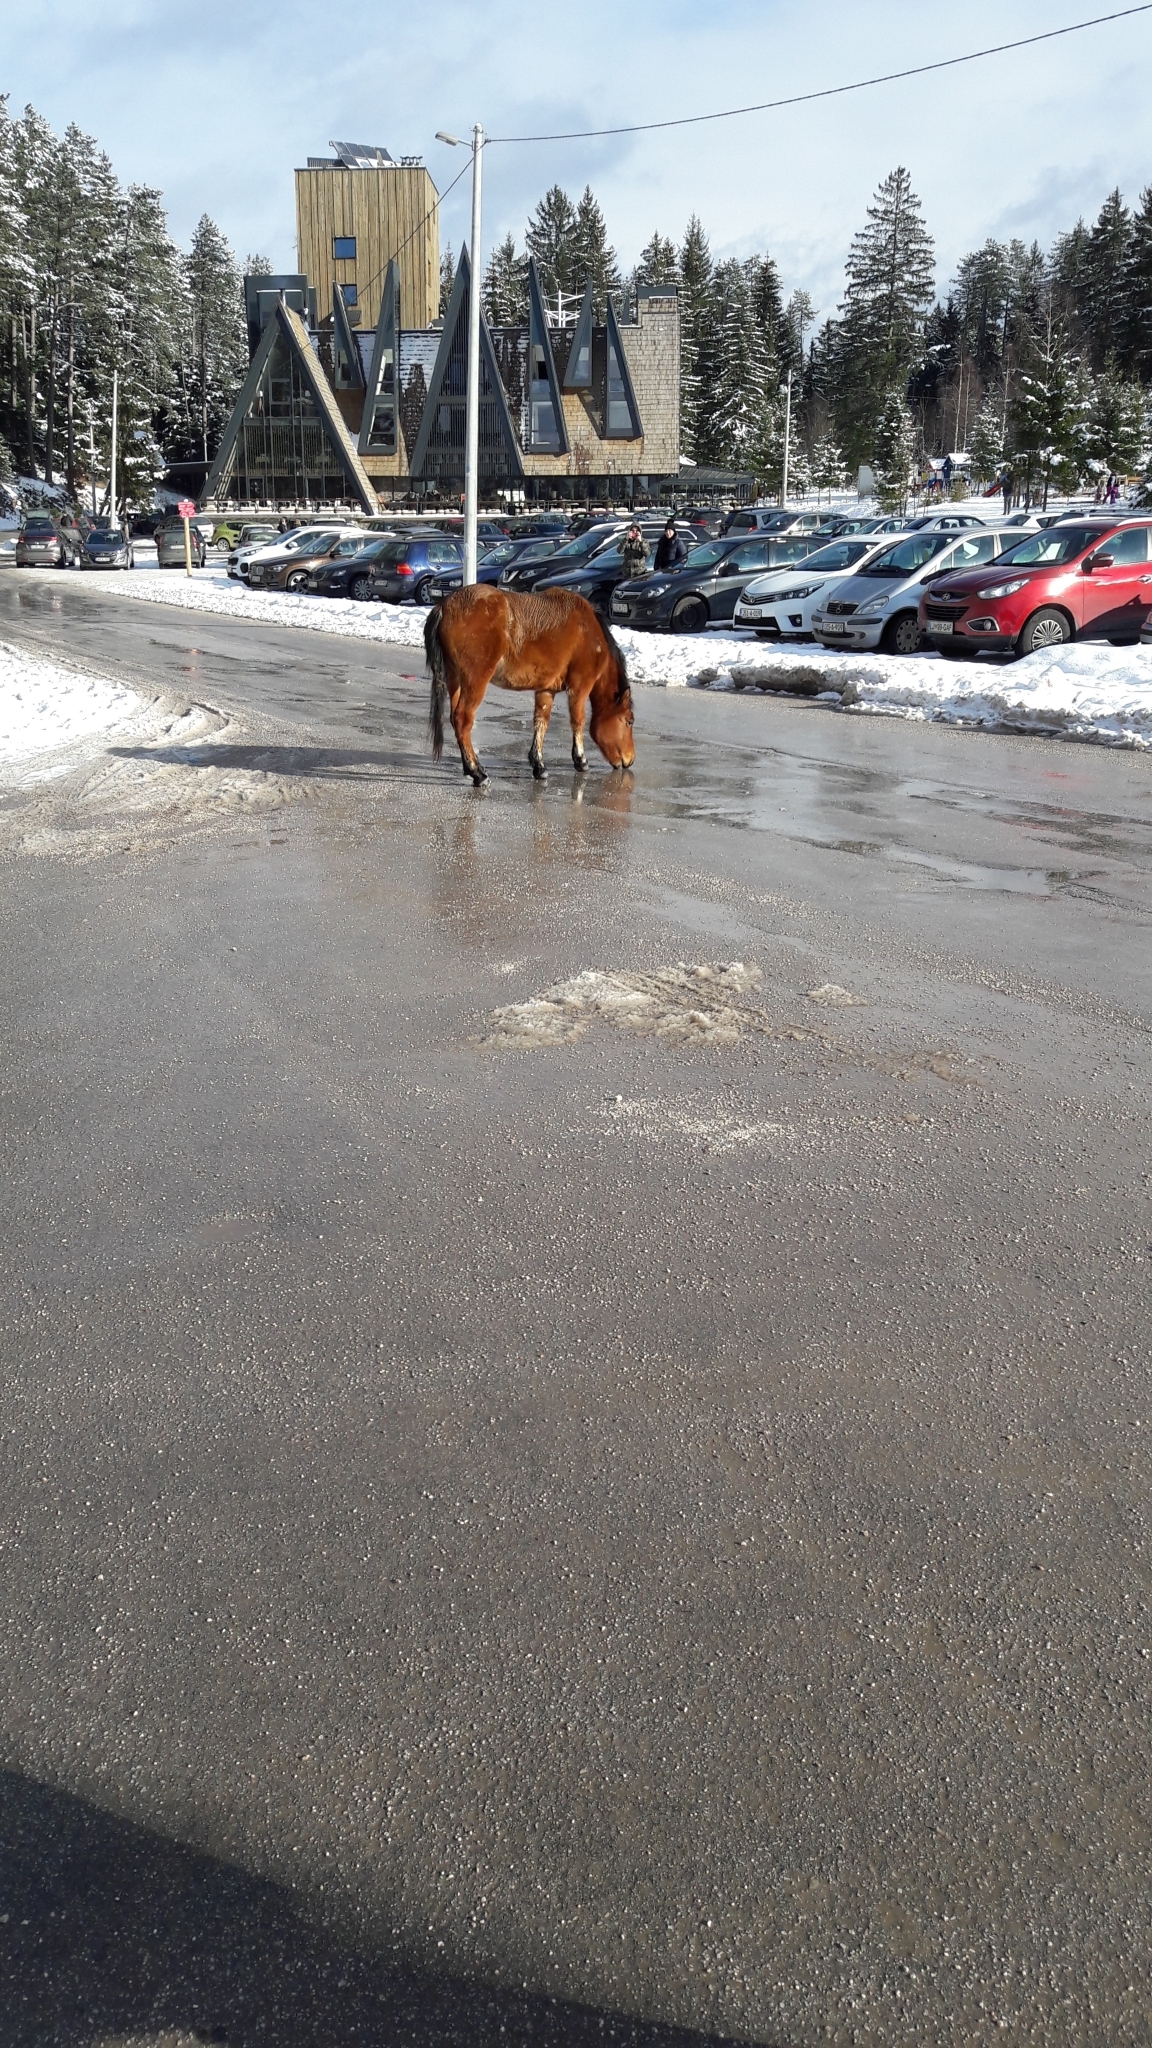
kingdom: Animalia
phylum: Chordata
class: Mammalia
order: Perissodactyla
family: Equidae
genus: Equus
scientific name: Equus caballus
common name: Horse
